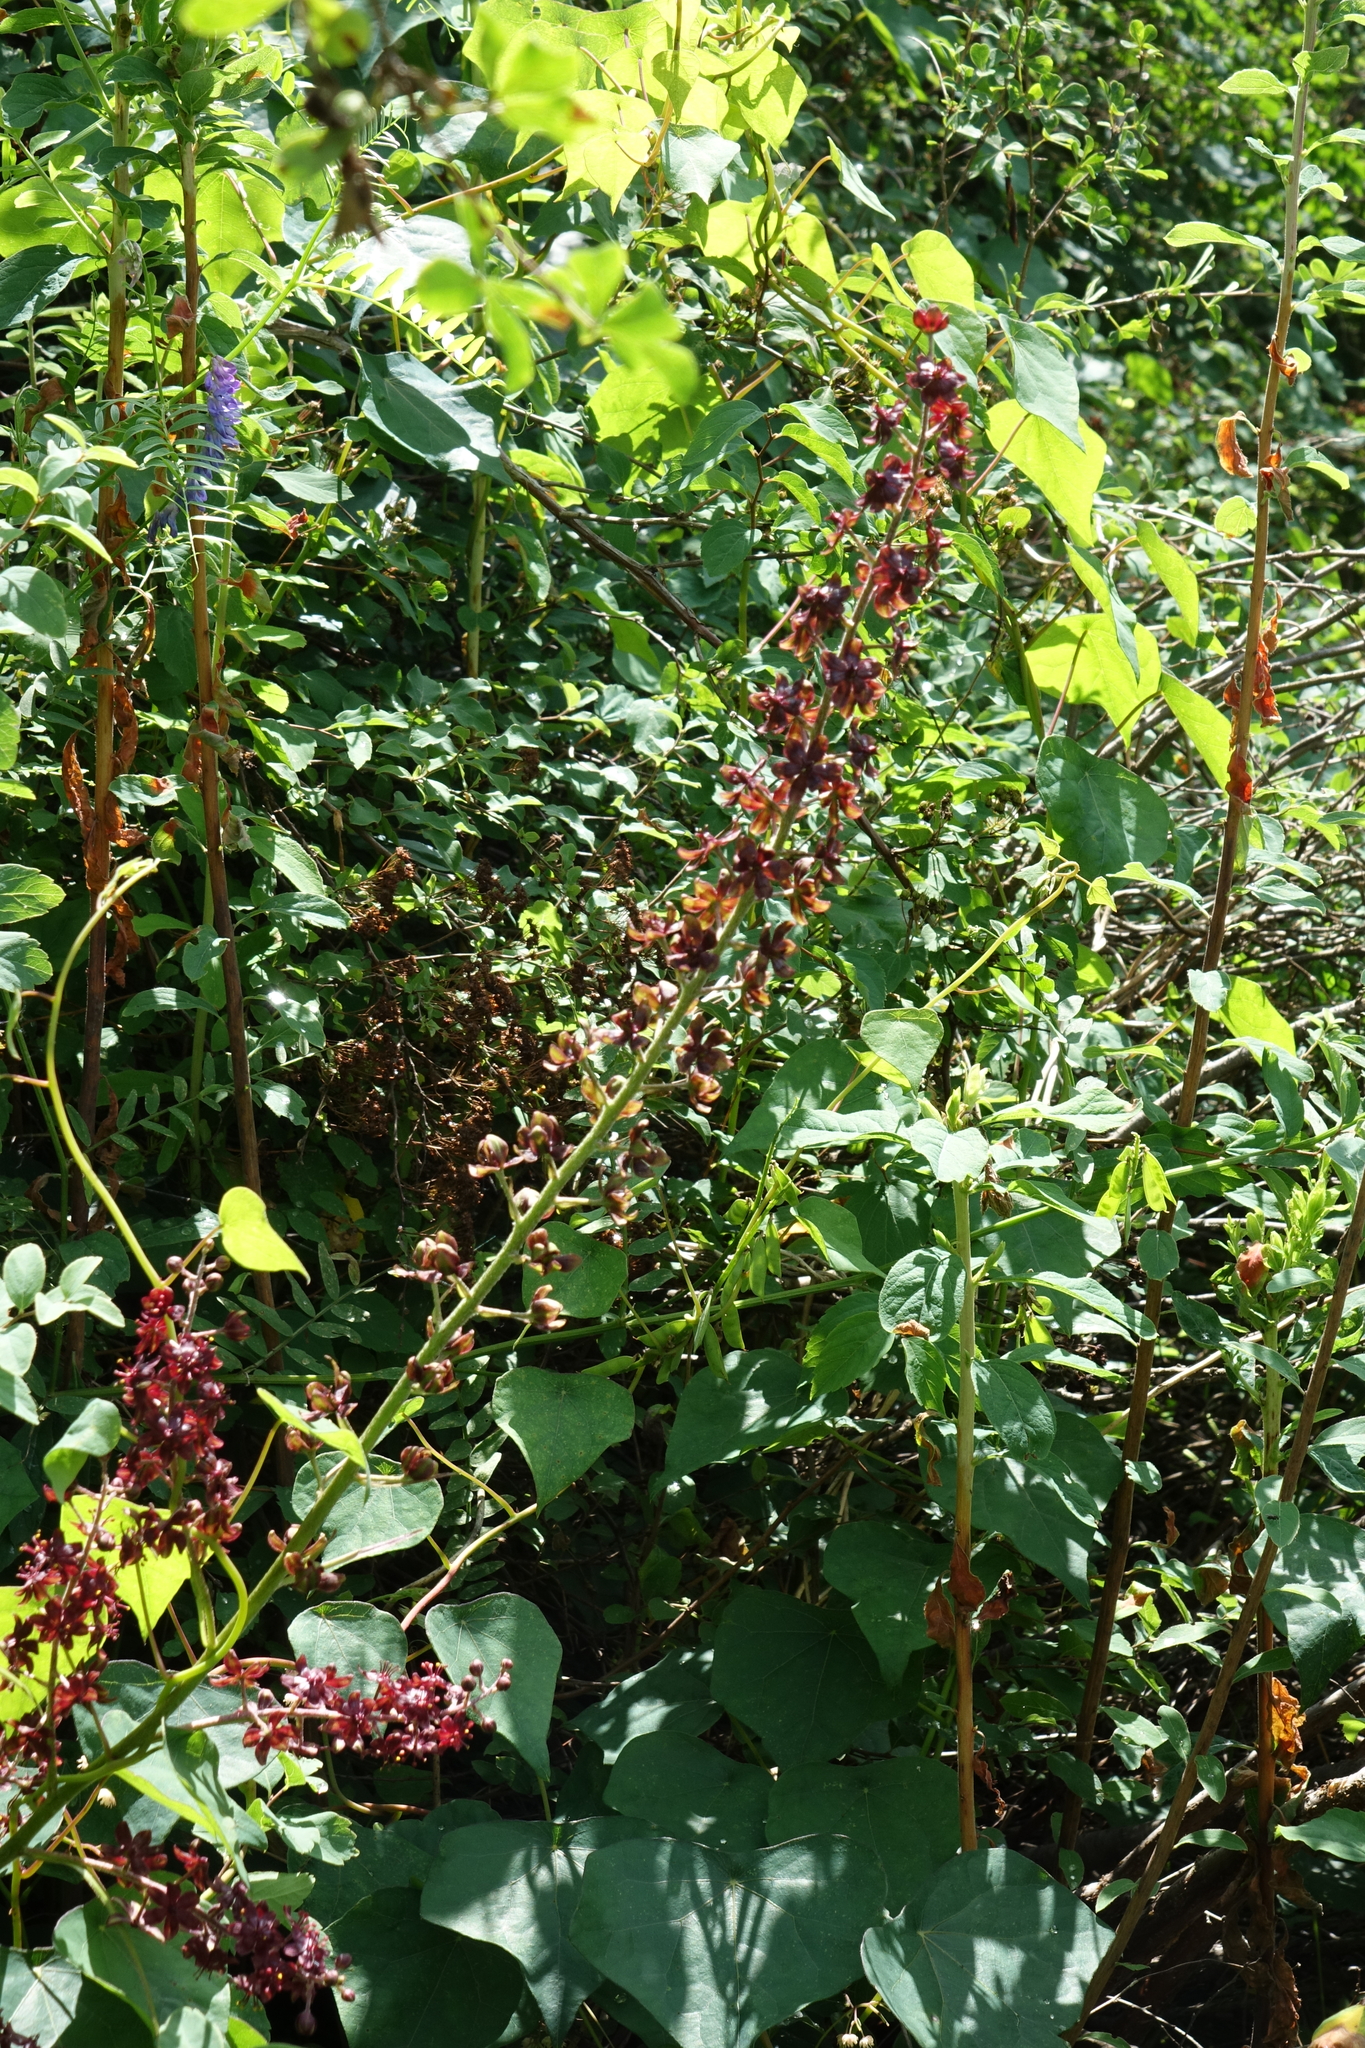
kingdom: Plantae
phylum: Tracheophyta
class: Liliopsida
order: Liliales
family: Melanthiaceae
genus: Veratrum
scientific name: Veratrum nigrum
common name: Black veratrum
